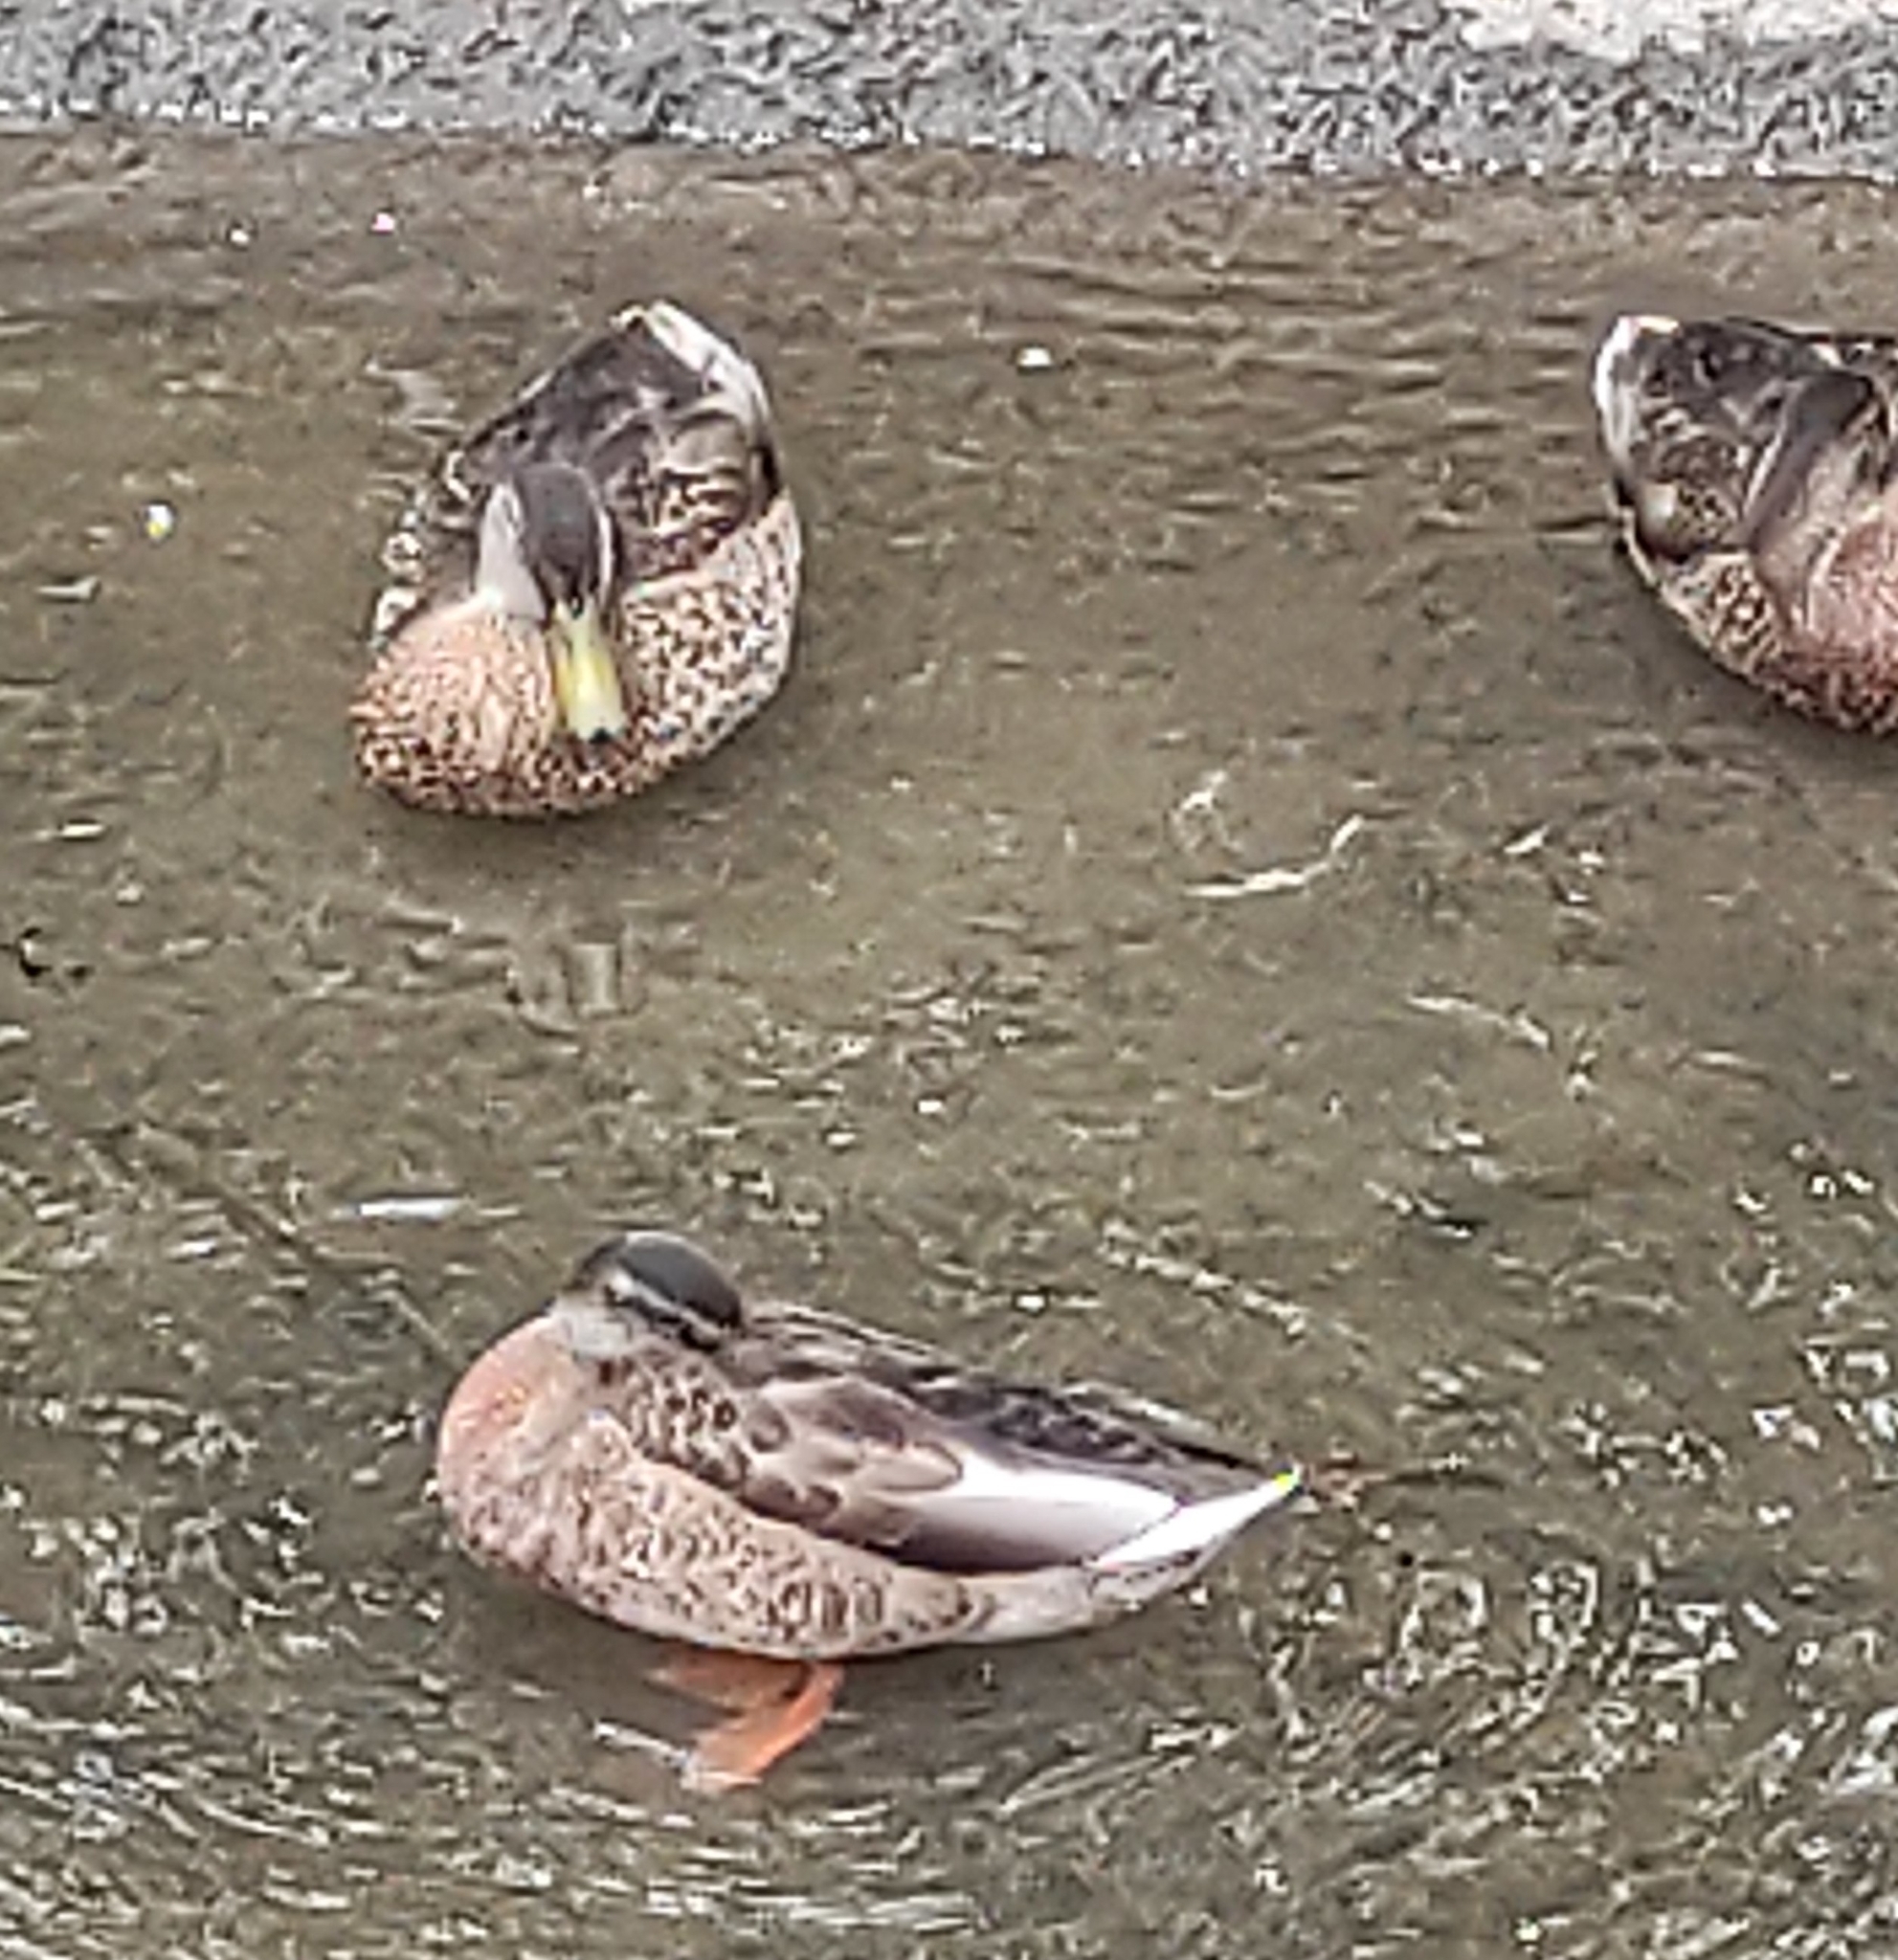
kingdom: Animalia
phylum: Chordata
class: Aves
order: Anseriformes
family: Anatidae
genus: Anas
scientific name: Anas platyrhynchos
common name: Mallard
